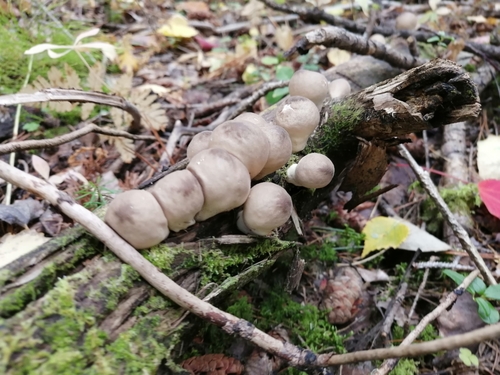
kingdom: Fungi
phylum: Basidiomycota
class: Agaricomycetes
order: Agaricales
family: Lycoperdaceae
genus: Apioperdon
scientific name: Apioperdon pyriforme
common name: Pear-shaped puffball
